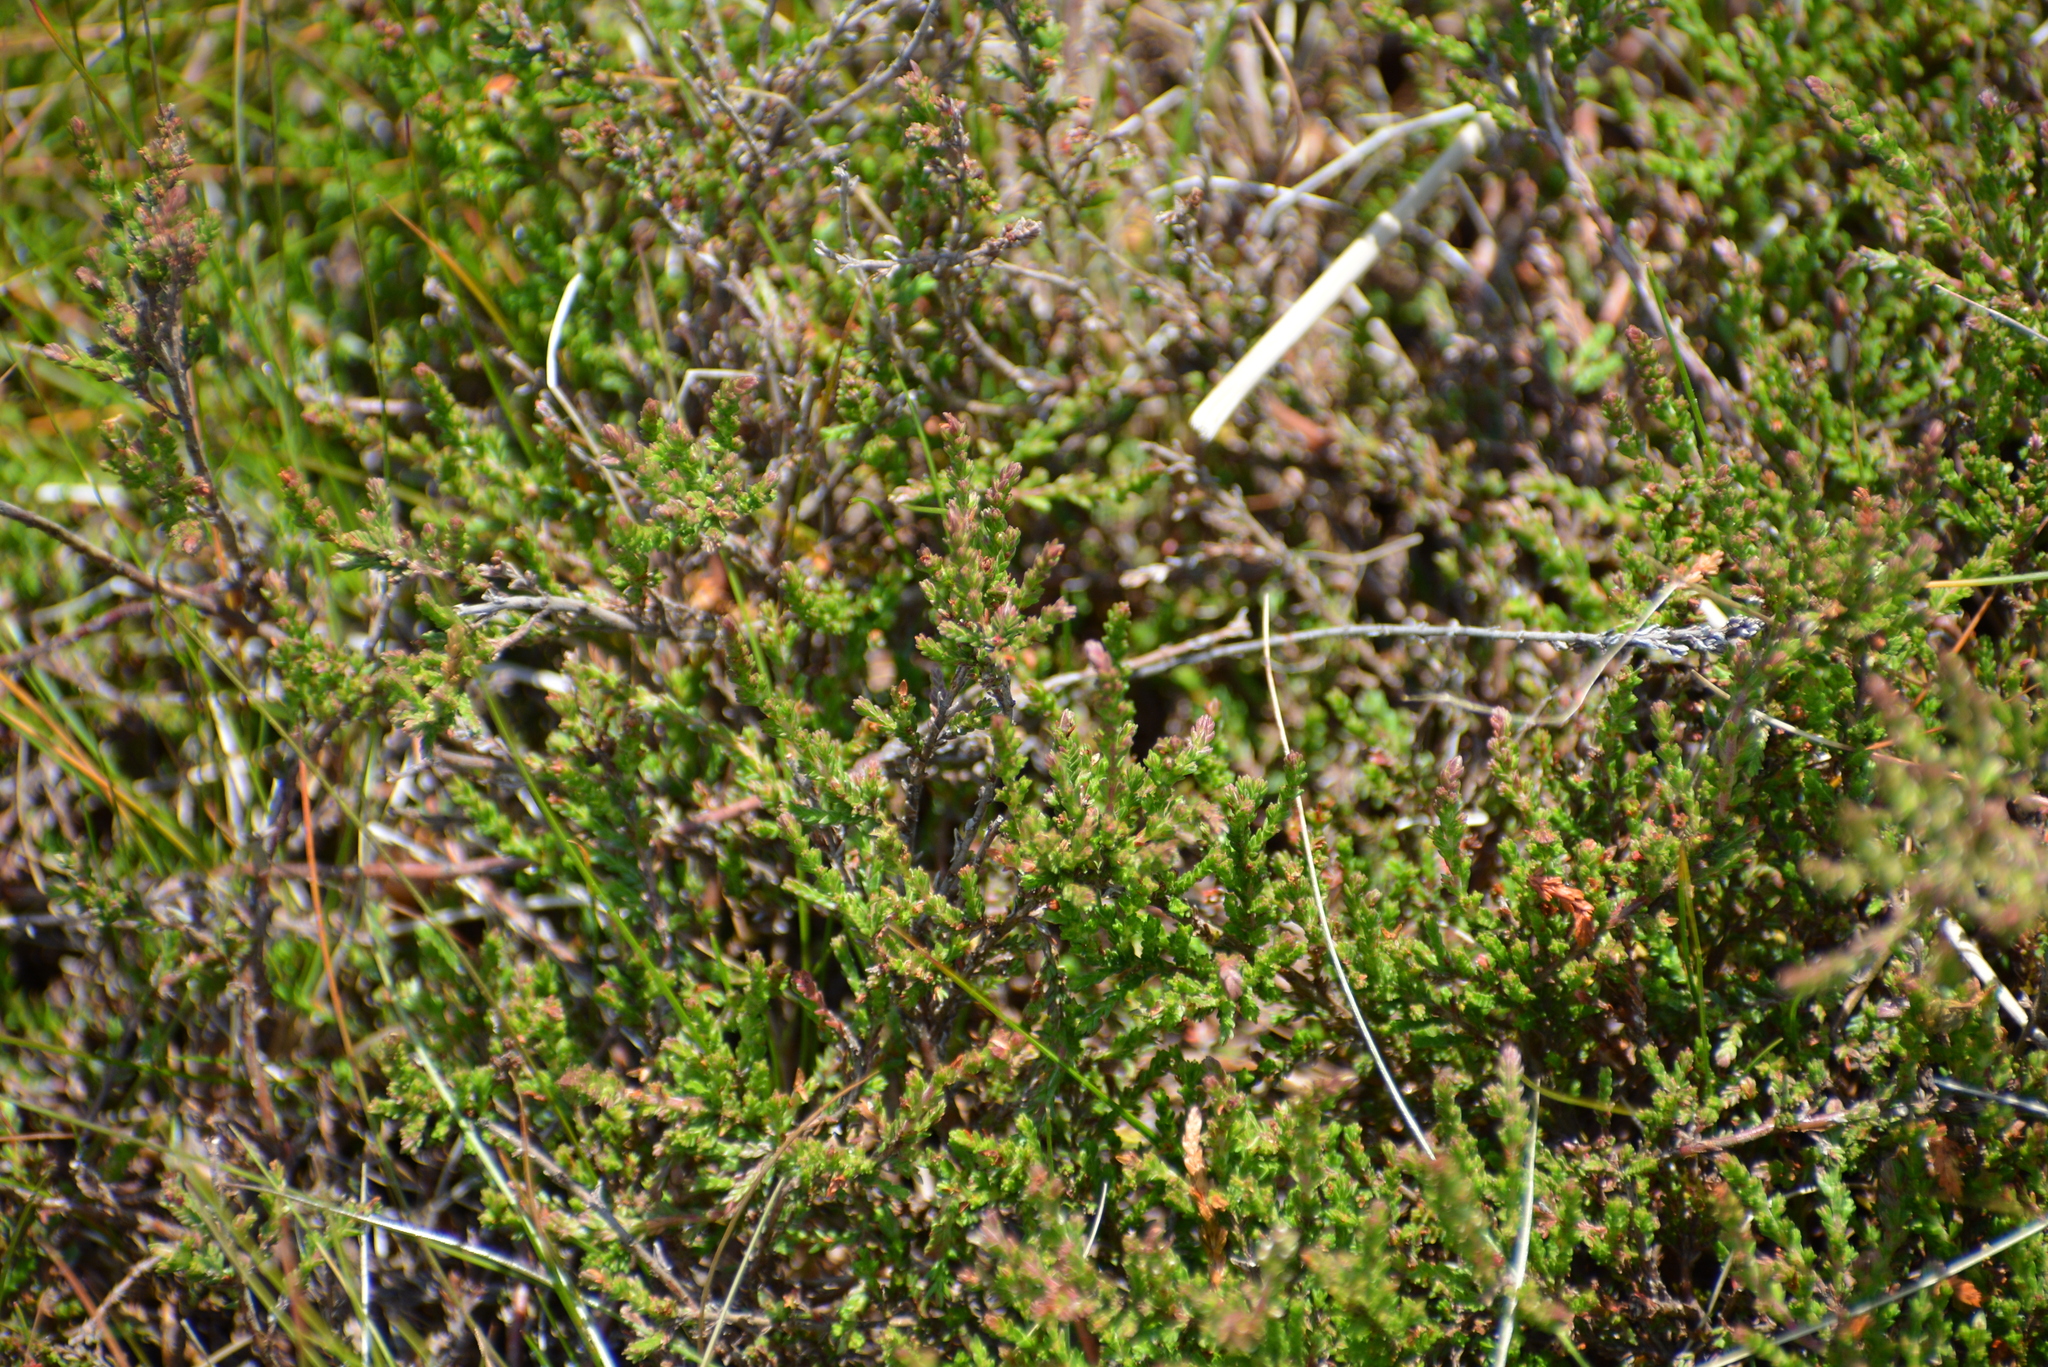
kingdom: Plantae
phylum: Tracheophyta
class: Magnoliopsida
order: Ericales
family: Ericaceae
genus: Calluna
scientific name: Calluna vulgaris
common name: Heather
